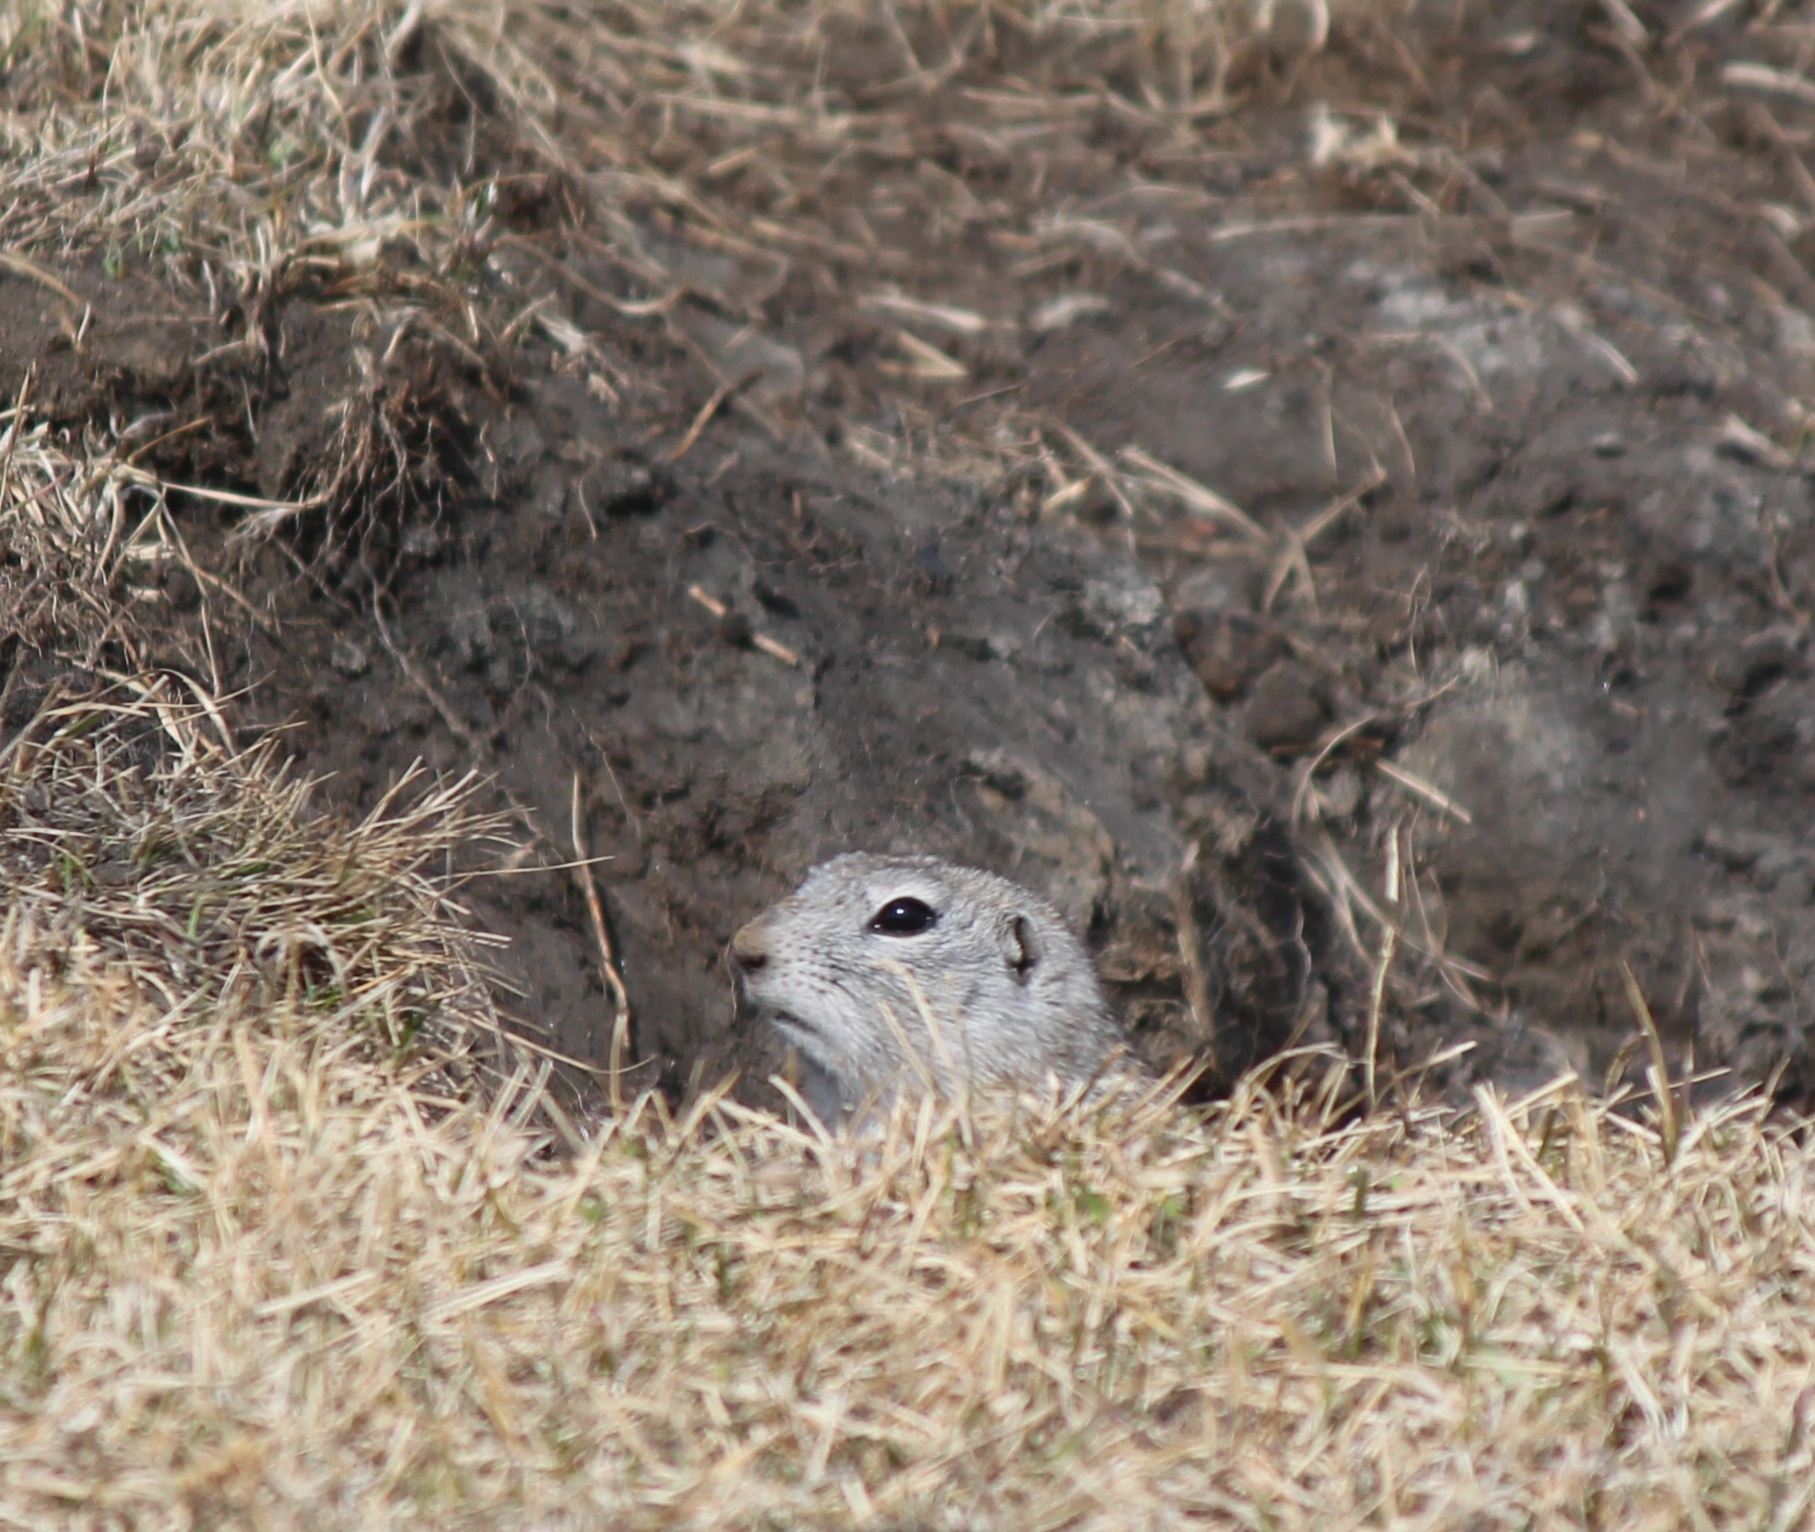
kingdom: Animalia
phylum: Chordata
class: Mammalia
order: Rodentia
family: Sciuridae
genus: Urocitellus
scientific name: Urocitellus undulatus
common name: Long-tailed ground squirrel
